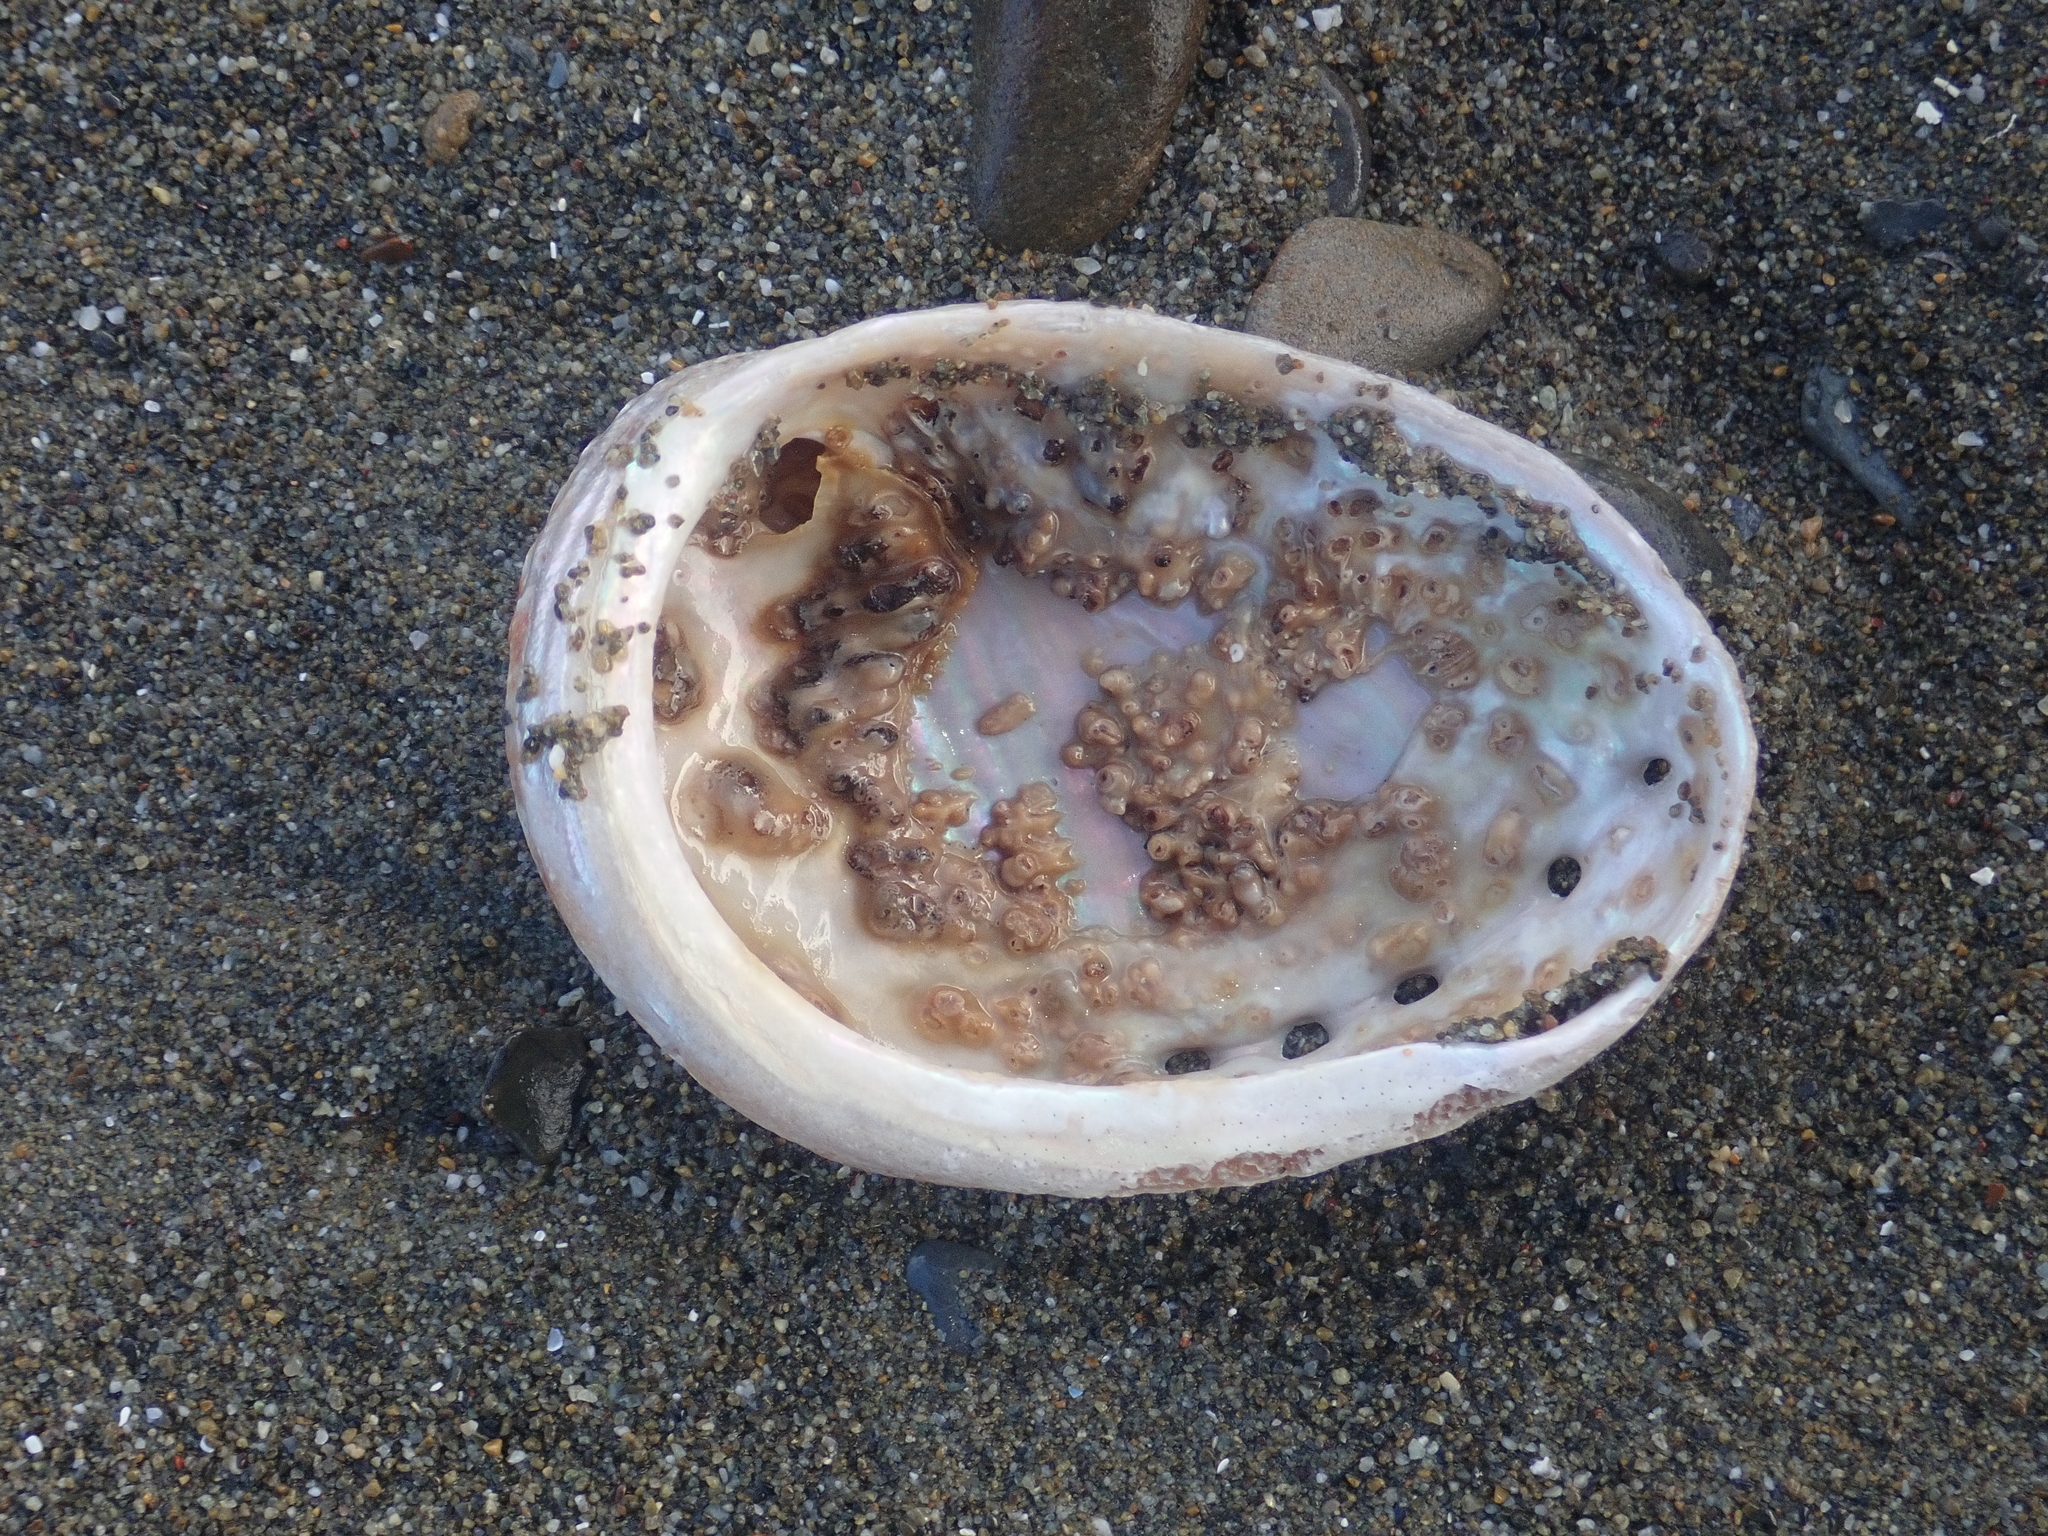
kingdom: Animalia
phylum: Mollusca
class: Gastropoda
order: Lepetellida
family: Haliotidae
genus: Haliotis
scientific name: Haliotis australis
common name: Silver abalone
